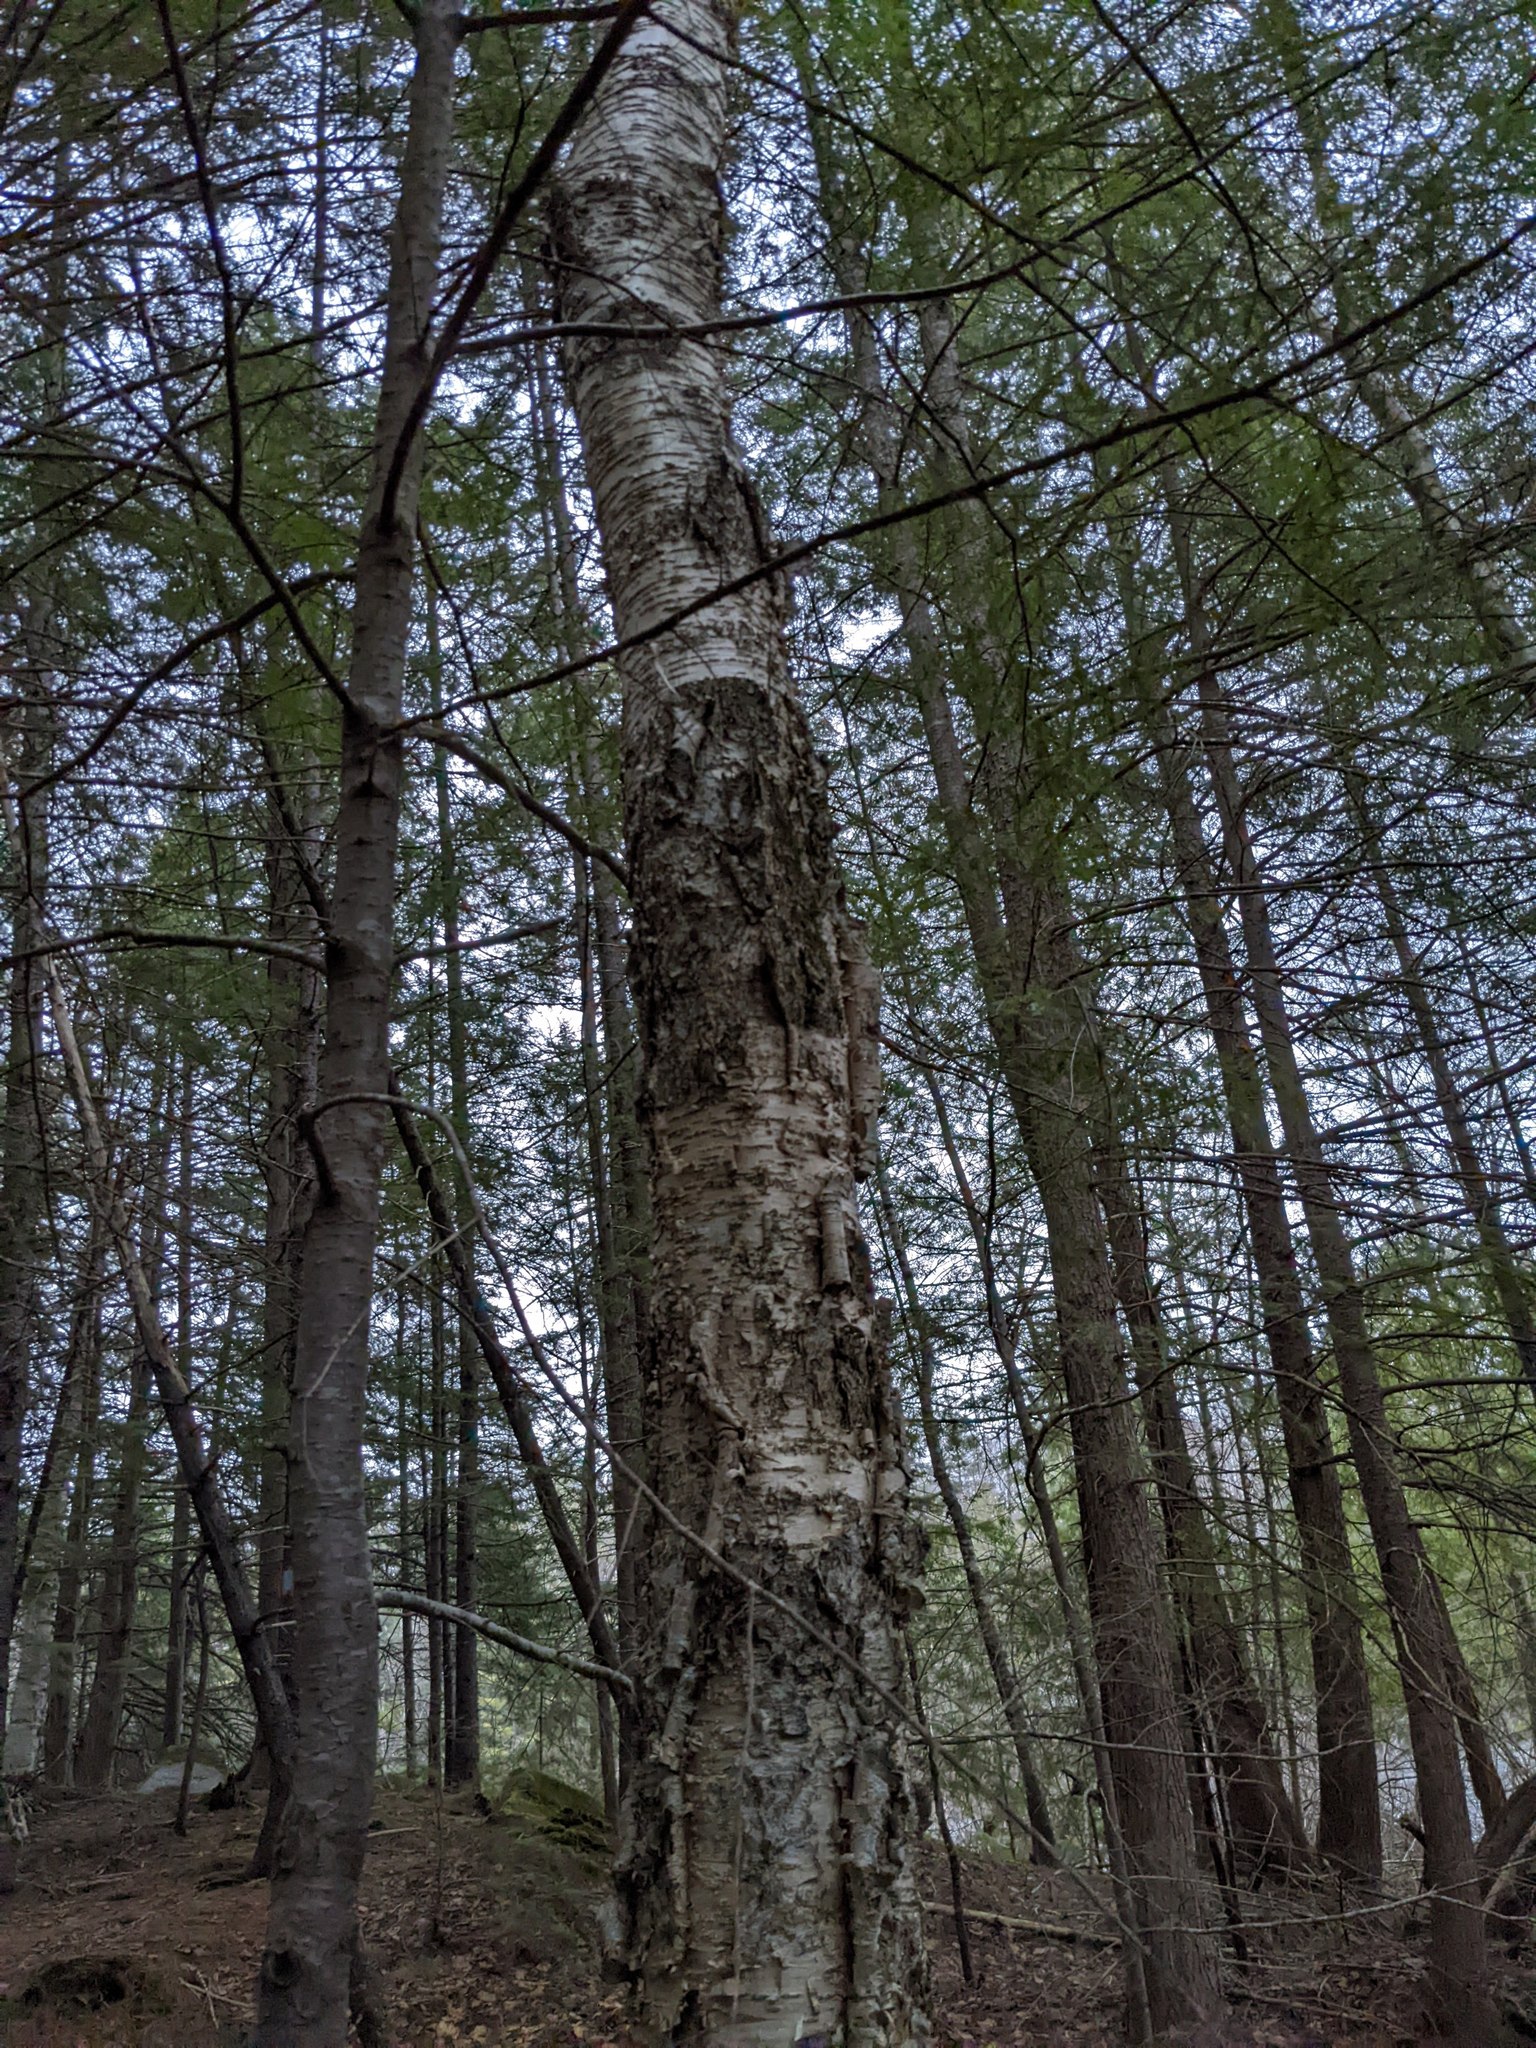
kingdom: Plantae
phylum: Tracheophyta
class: Magnoliopsida
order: Fagales
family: Betulaceae
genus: Betula
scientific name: Betula alleghaniensis
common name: Yellow birch
